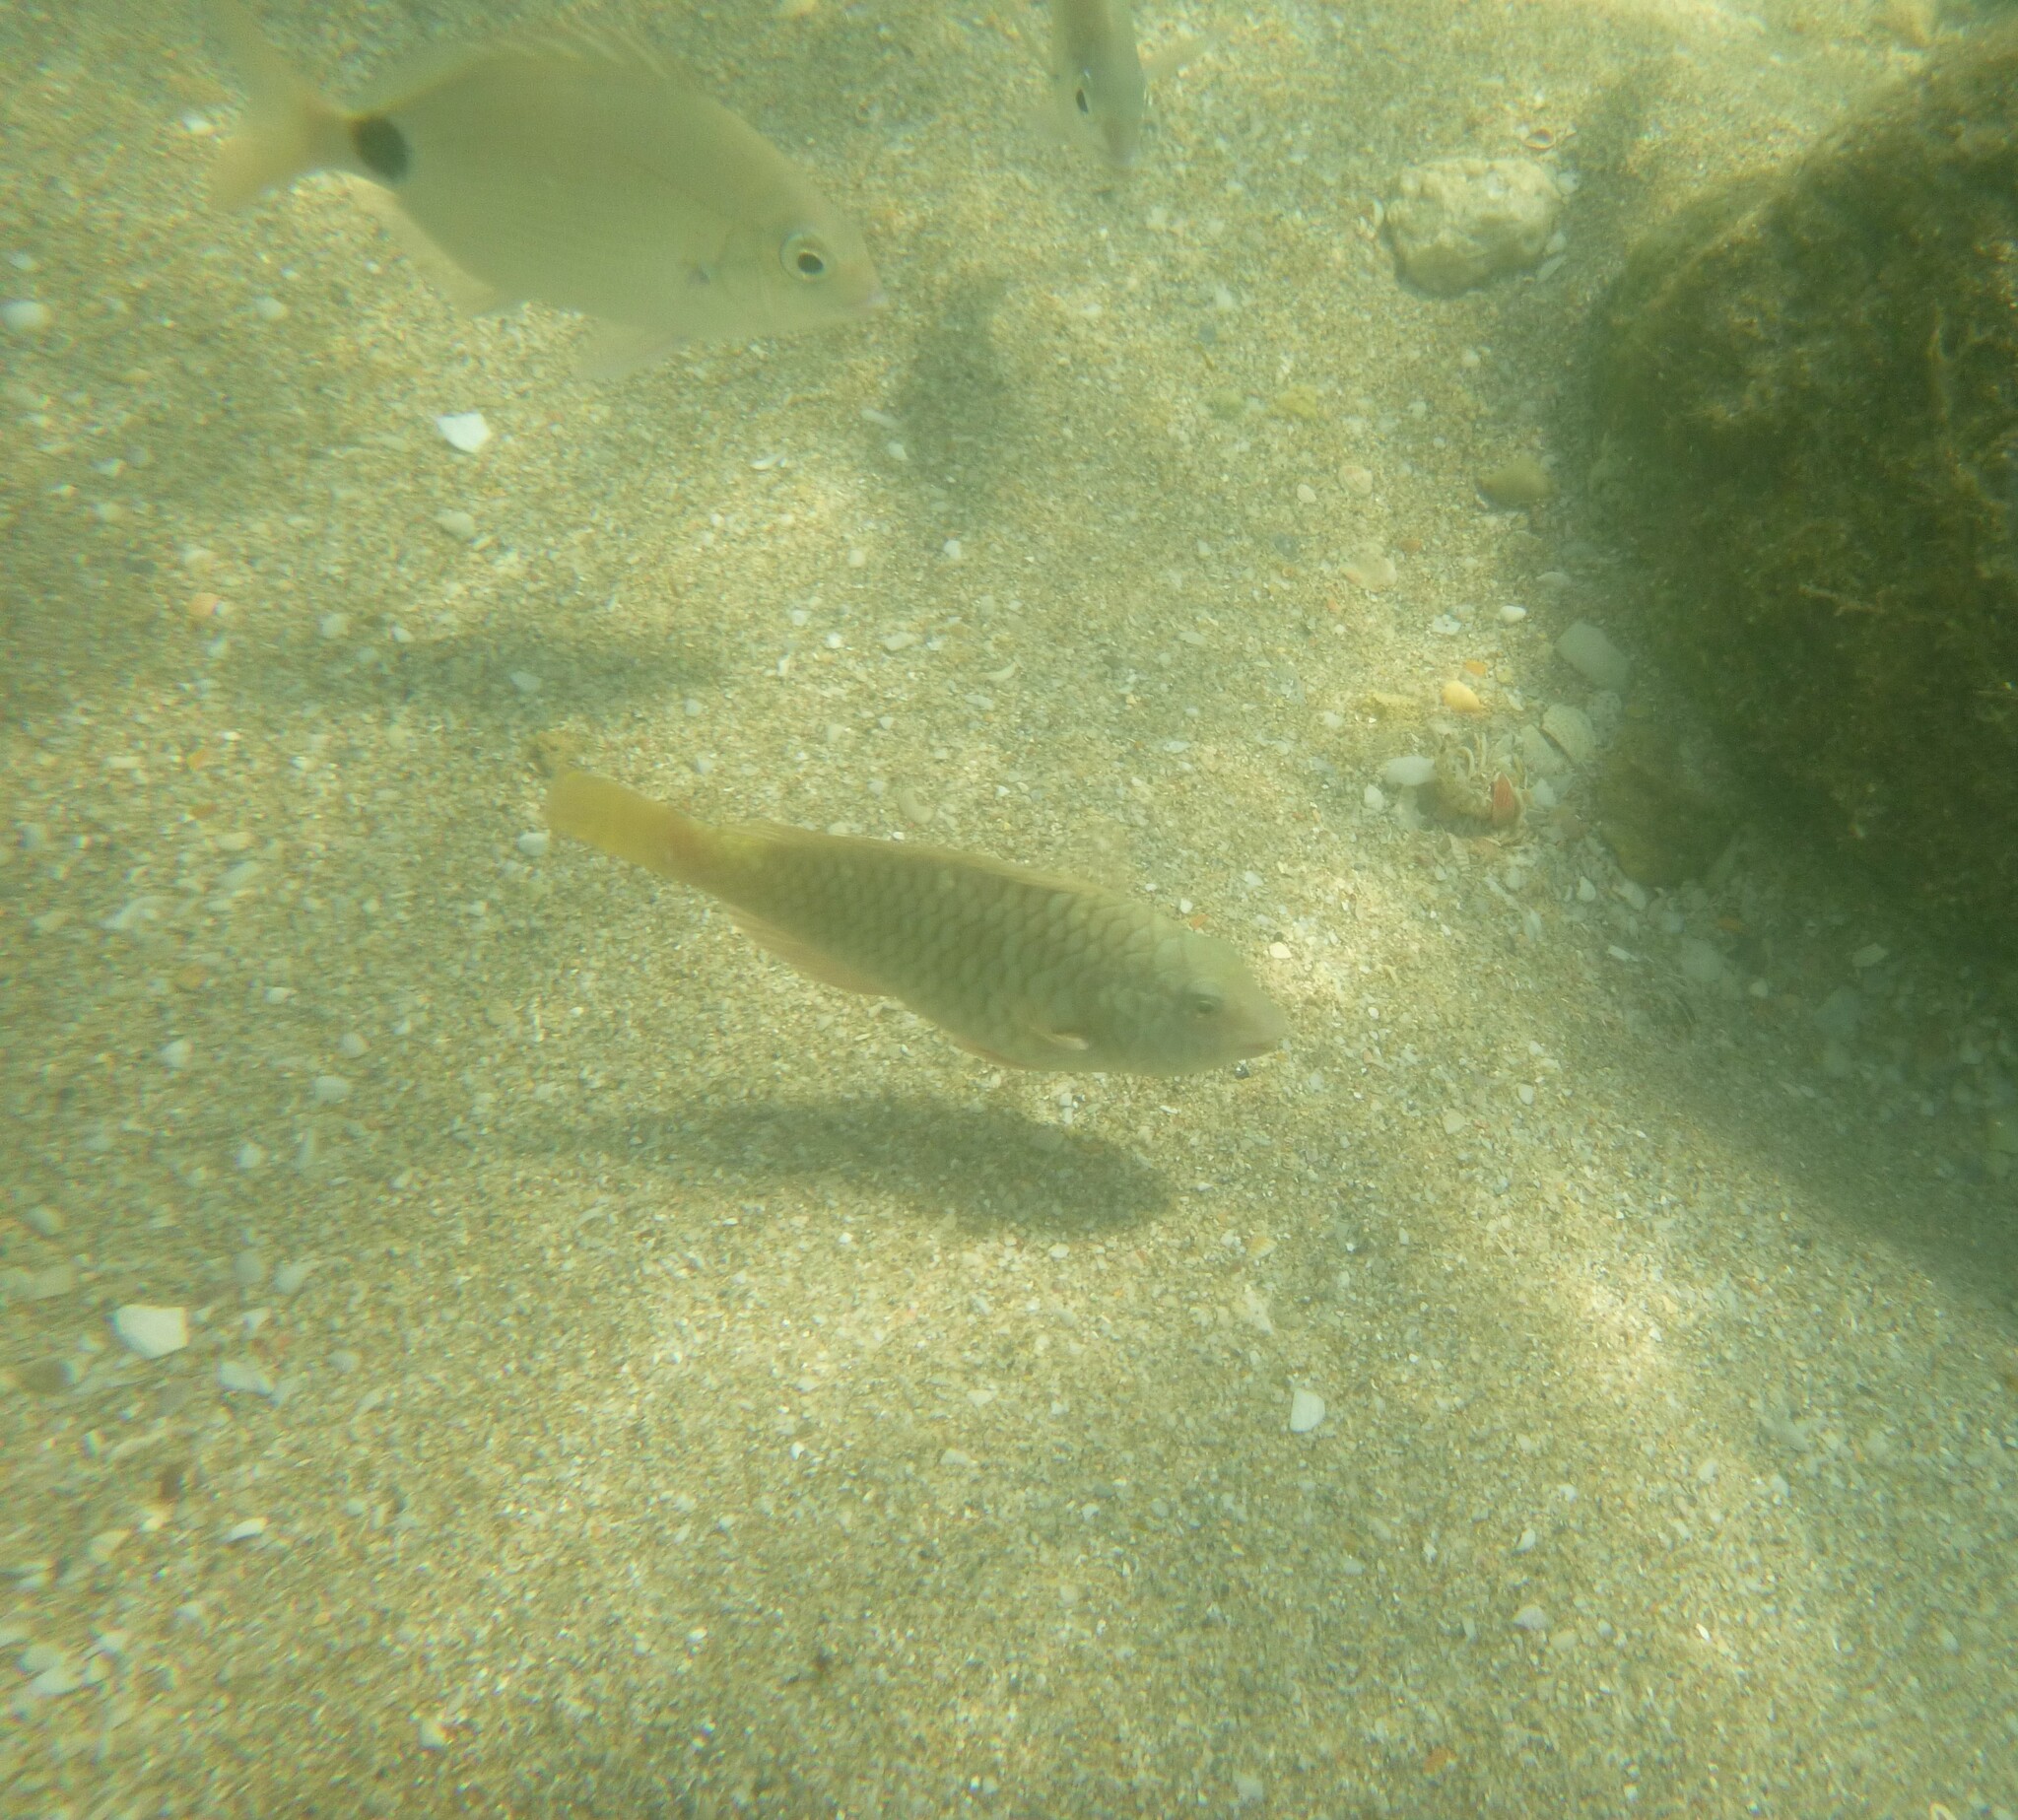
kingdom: Animalia
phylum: Chordata
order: Perciformes
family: Scaridae
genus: Sparisoma
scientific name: Sparisoma rubripinne
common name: Redfin parrotfish
